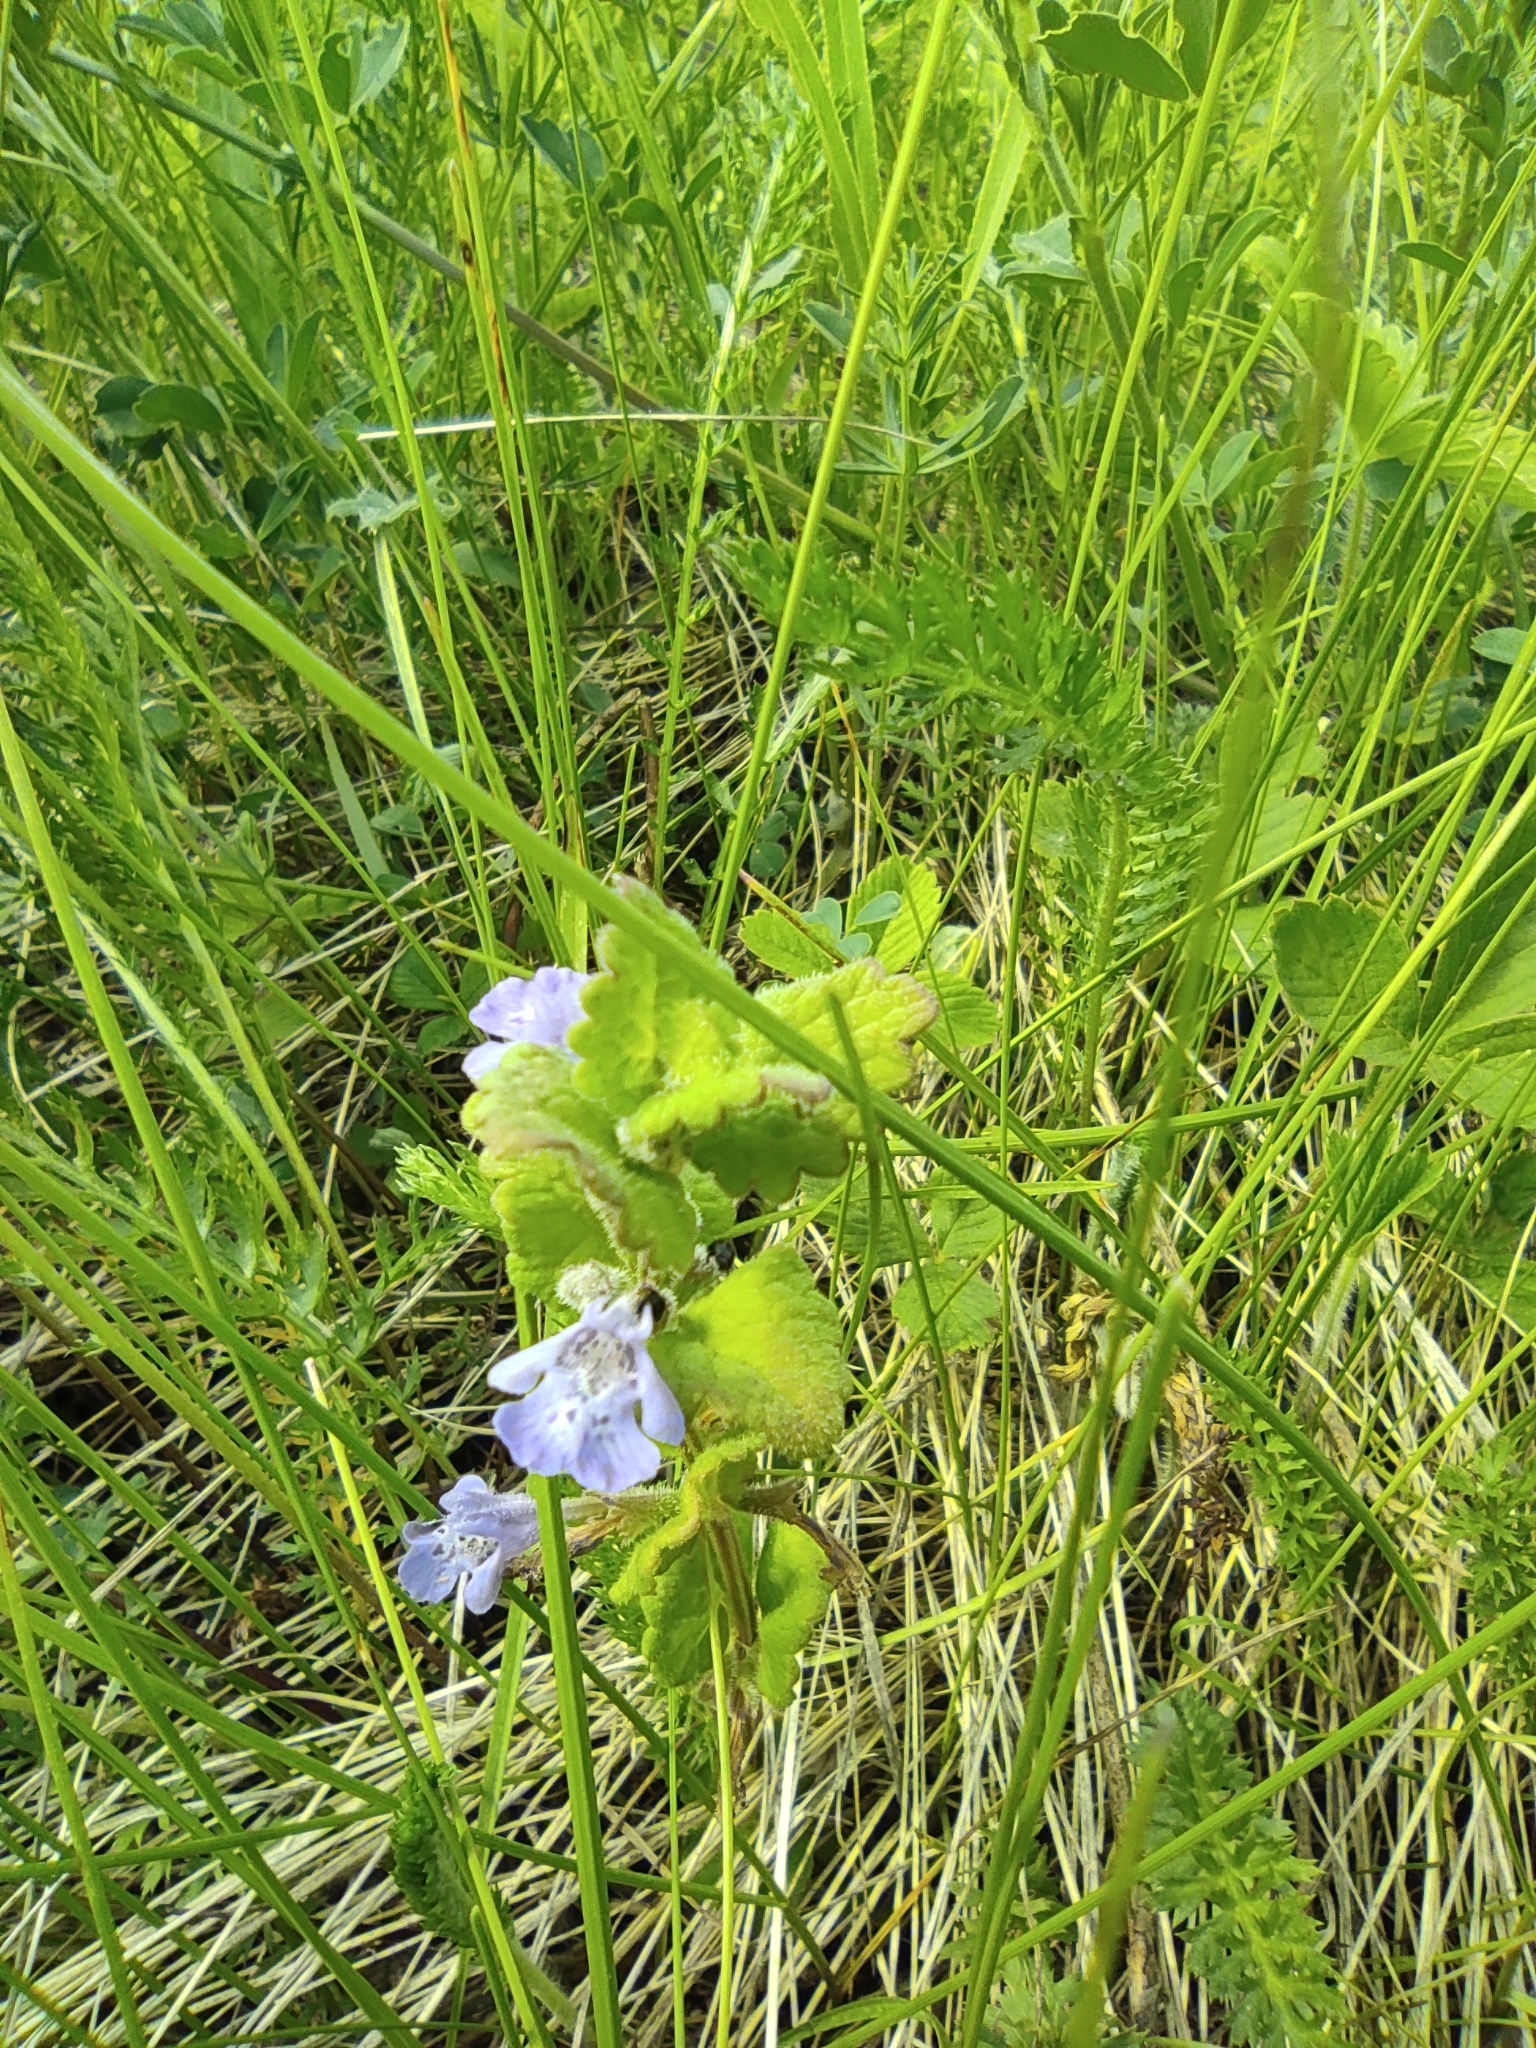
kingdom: Plantae
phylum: Tracheophyta
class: Magnoliopsida
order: Lamiales
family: Lamiaceae
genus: Glechoma
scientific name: Glechoma hederacea
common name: Ground ivy
